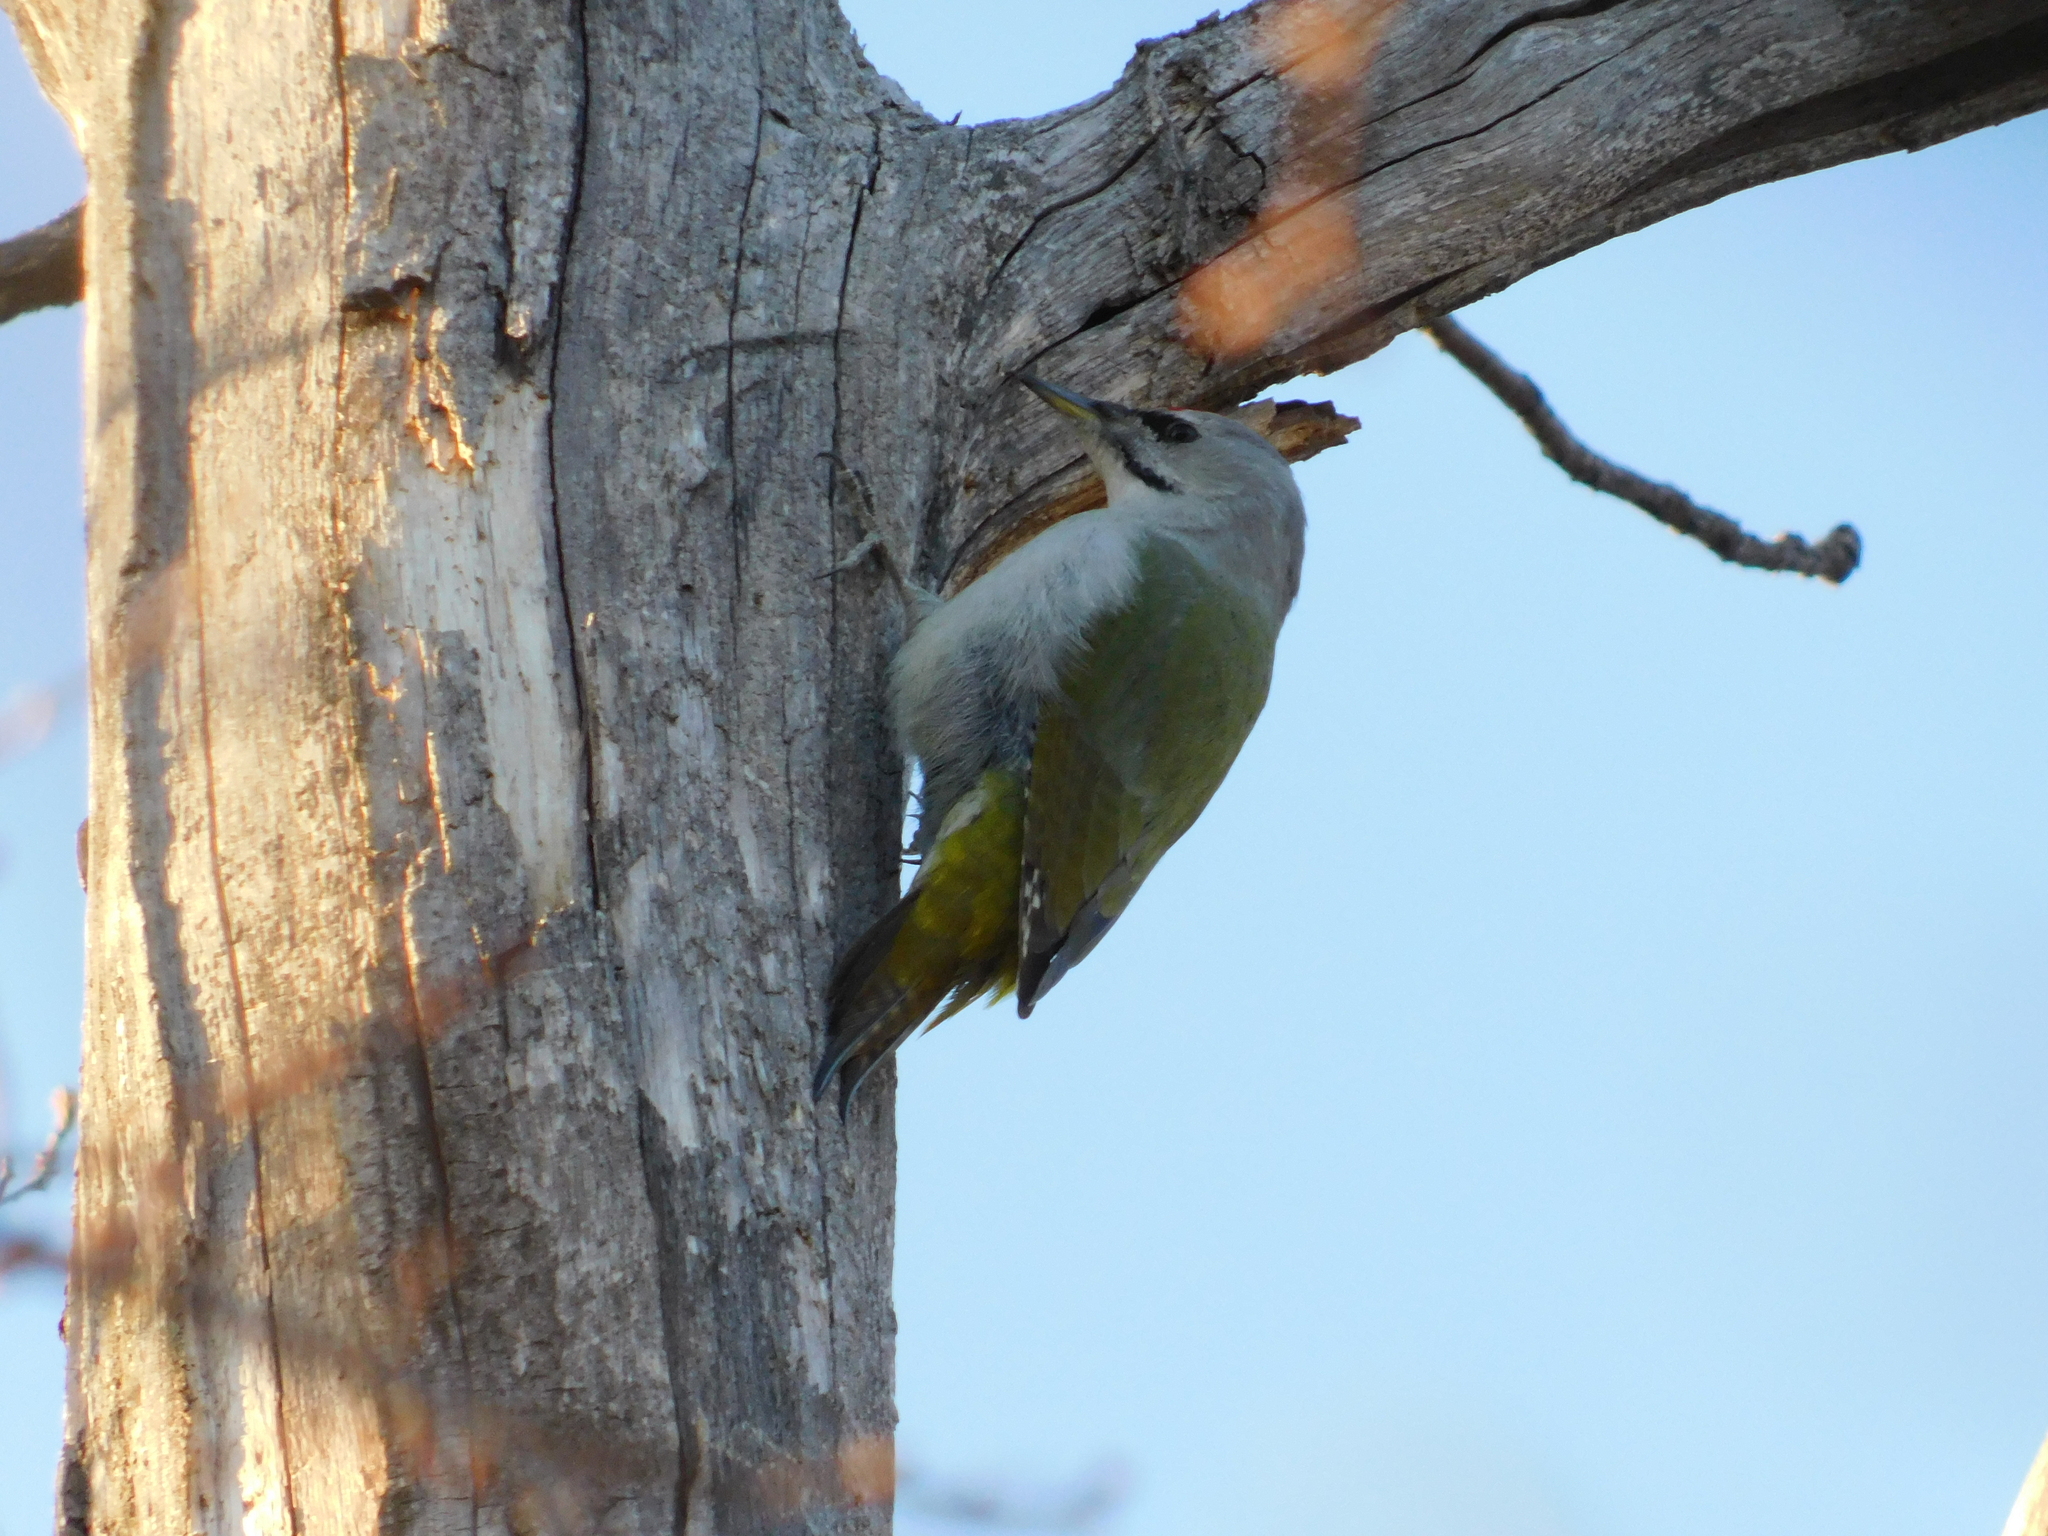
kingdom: Animalia
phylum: Chordata
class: Aves
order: Piciformes
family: Picidae
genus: Picus
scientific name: Picus canus
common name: Grey-headed woodpecker
